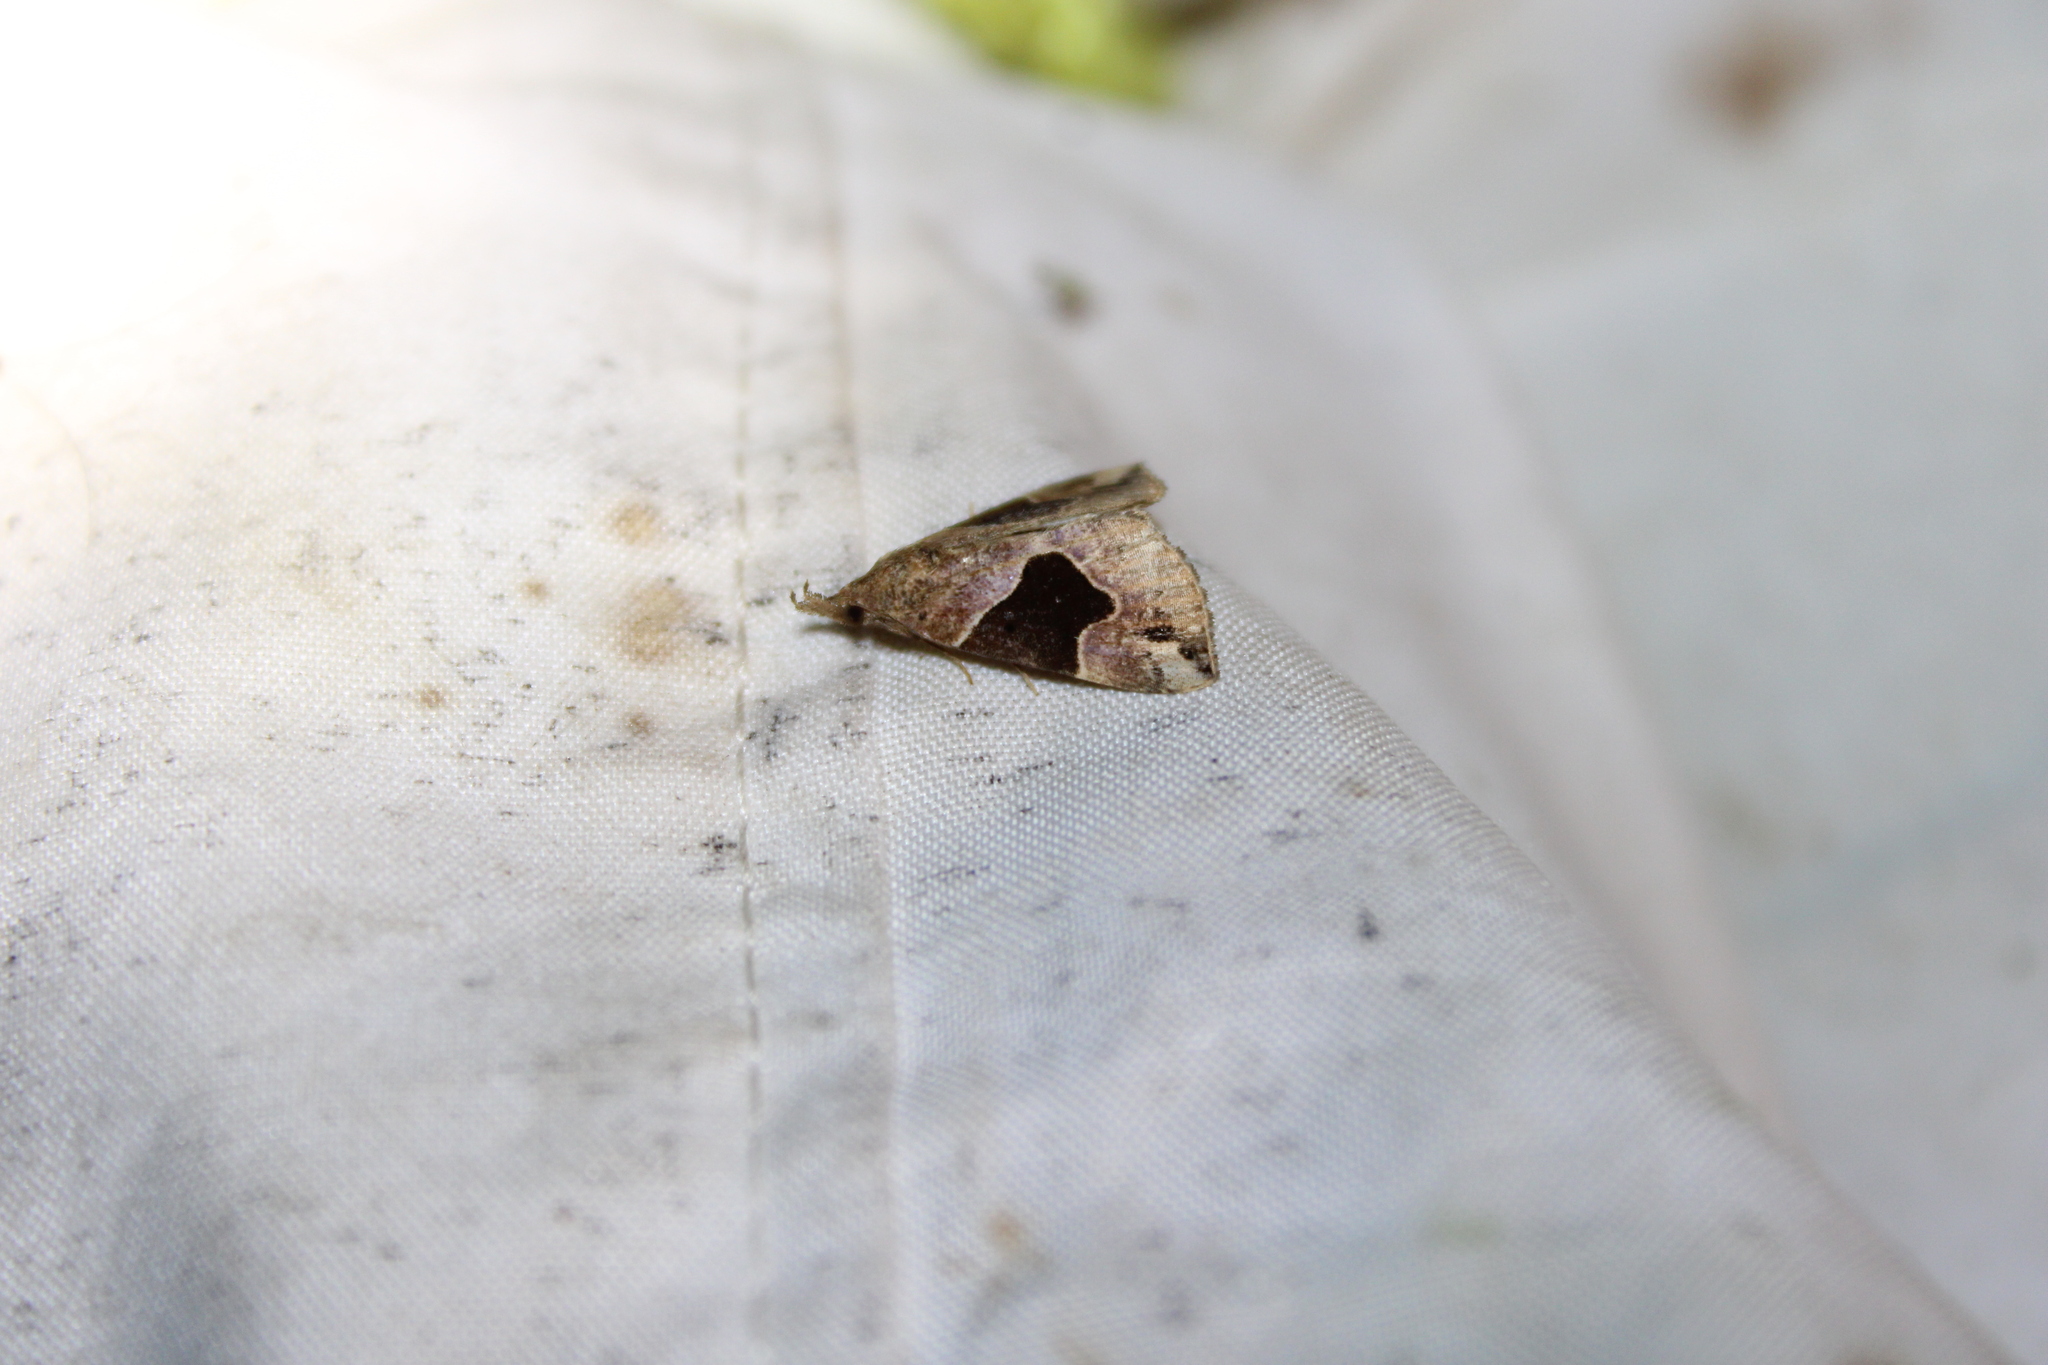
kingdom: Animalia
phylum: Arthropoda
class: Insecta
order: Lepidoptera
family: Erebidae
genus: Hypena
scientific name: Hypena manalis
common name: Flowing-line bomolocha moth
